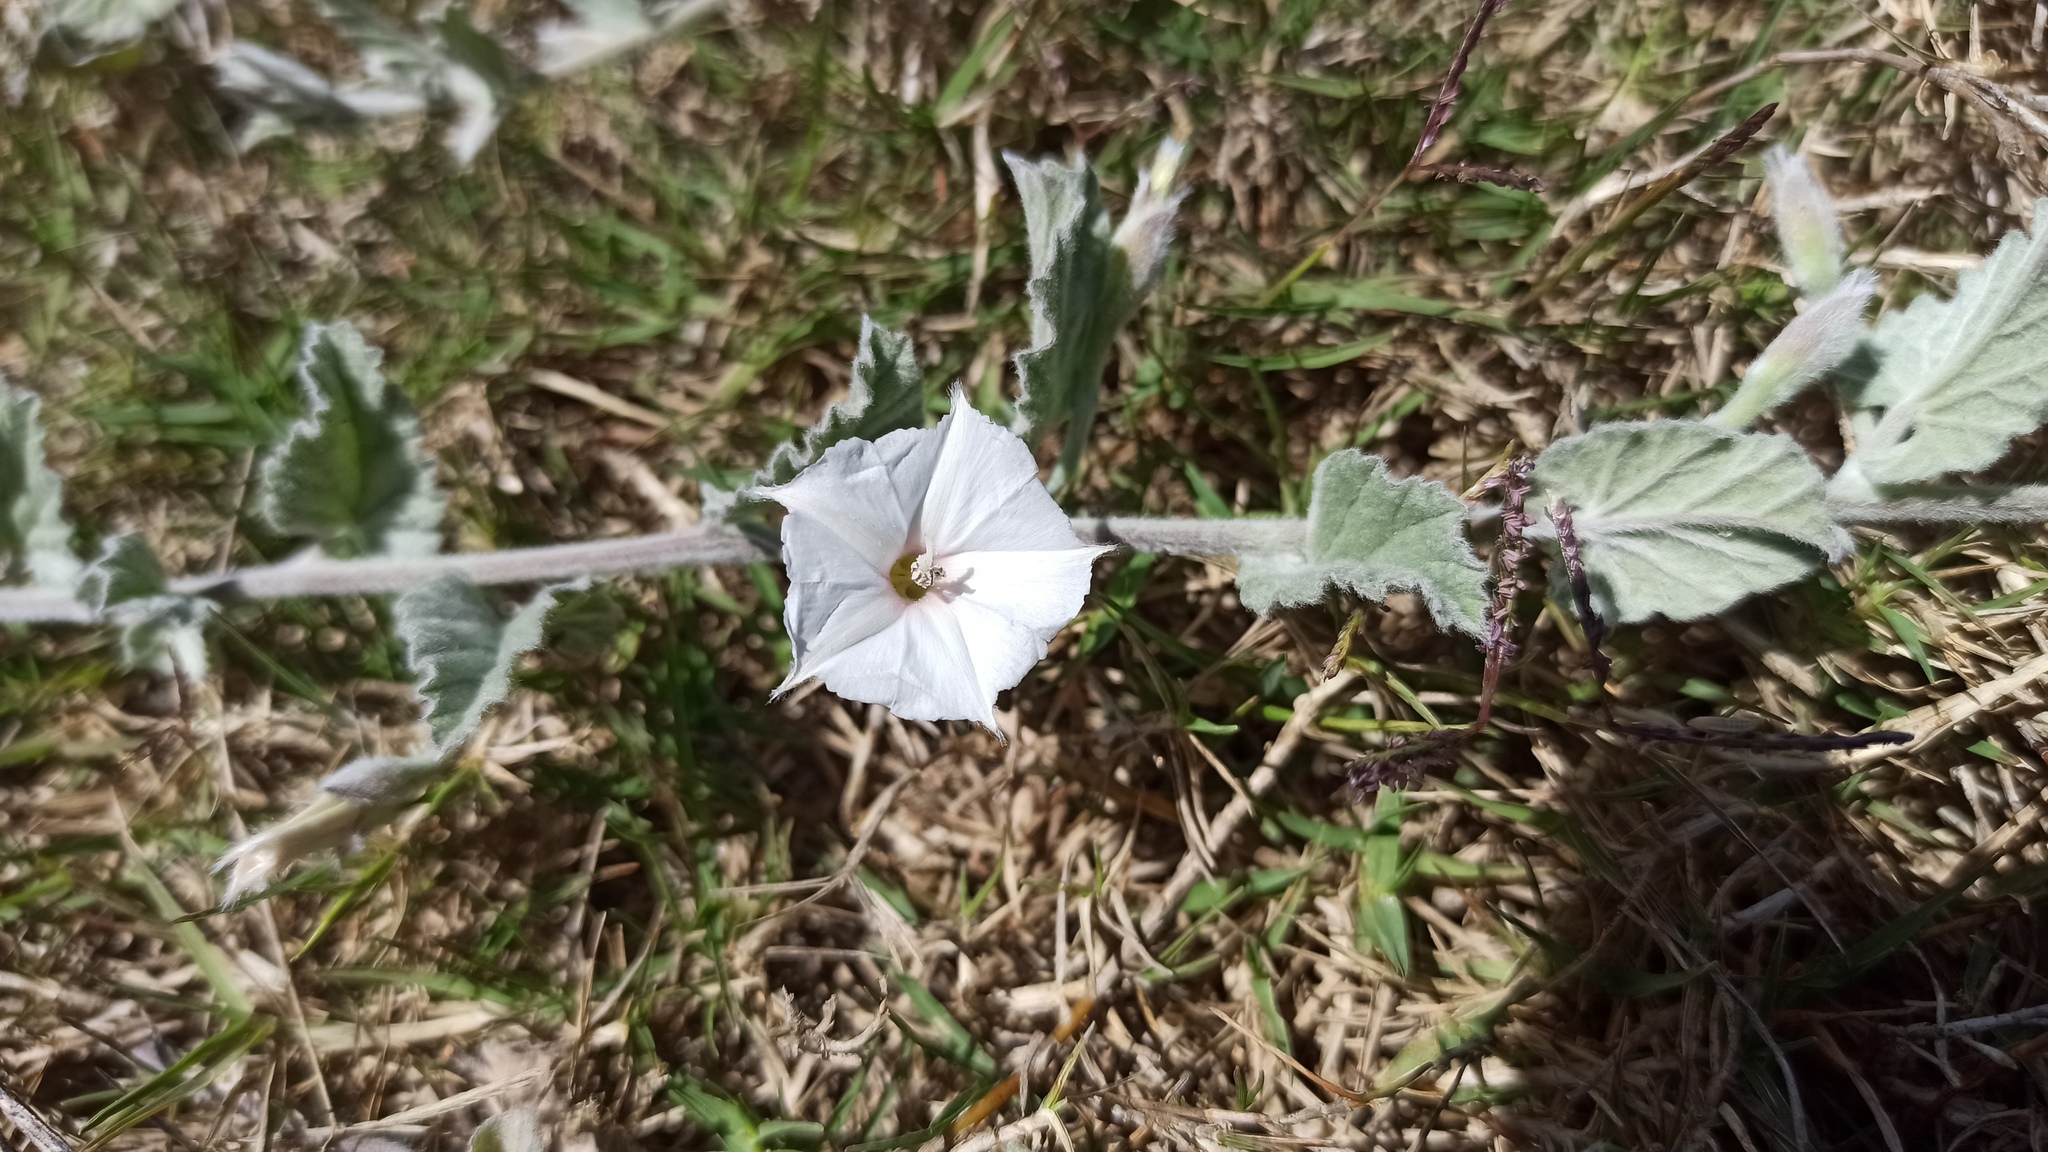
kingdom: Plantae
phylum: Tracheophyta
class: Magnoliopsida
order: Solanales
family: Convolvulaceae
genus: Convolvulus
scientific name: Convolvulus hermanniae
